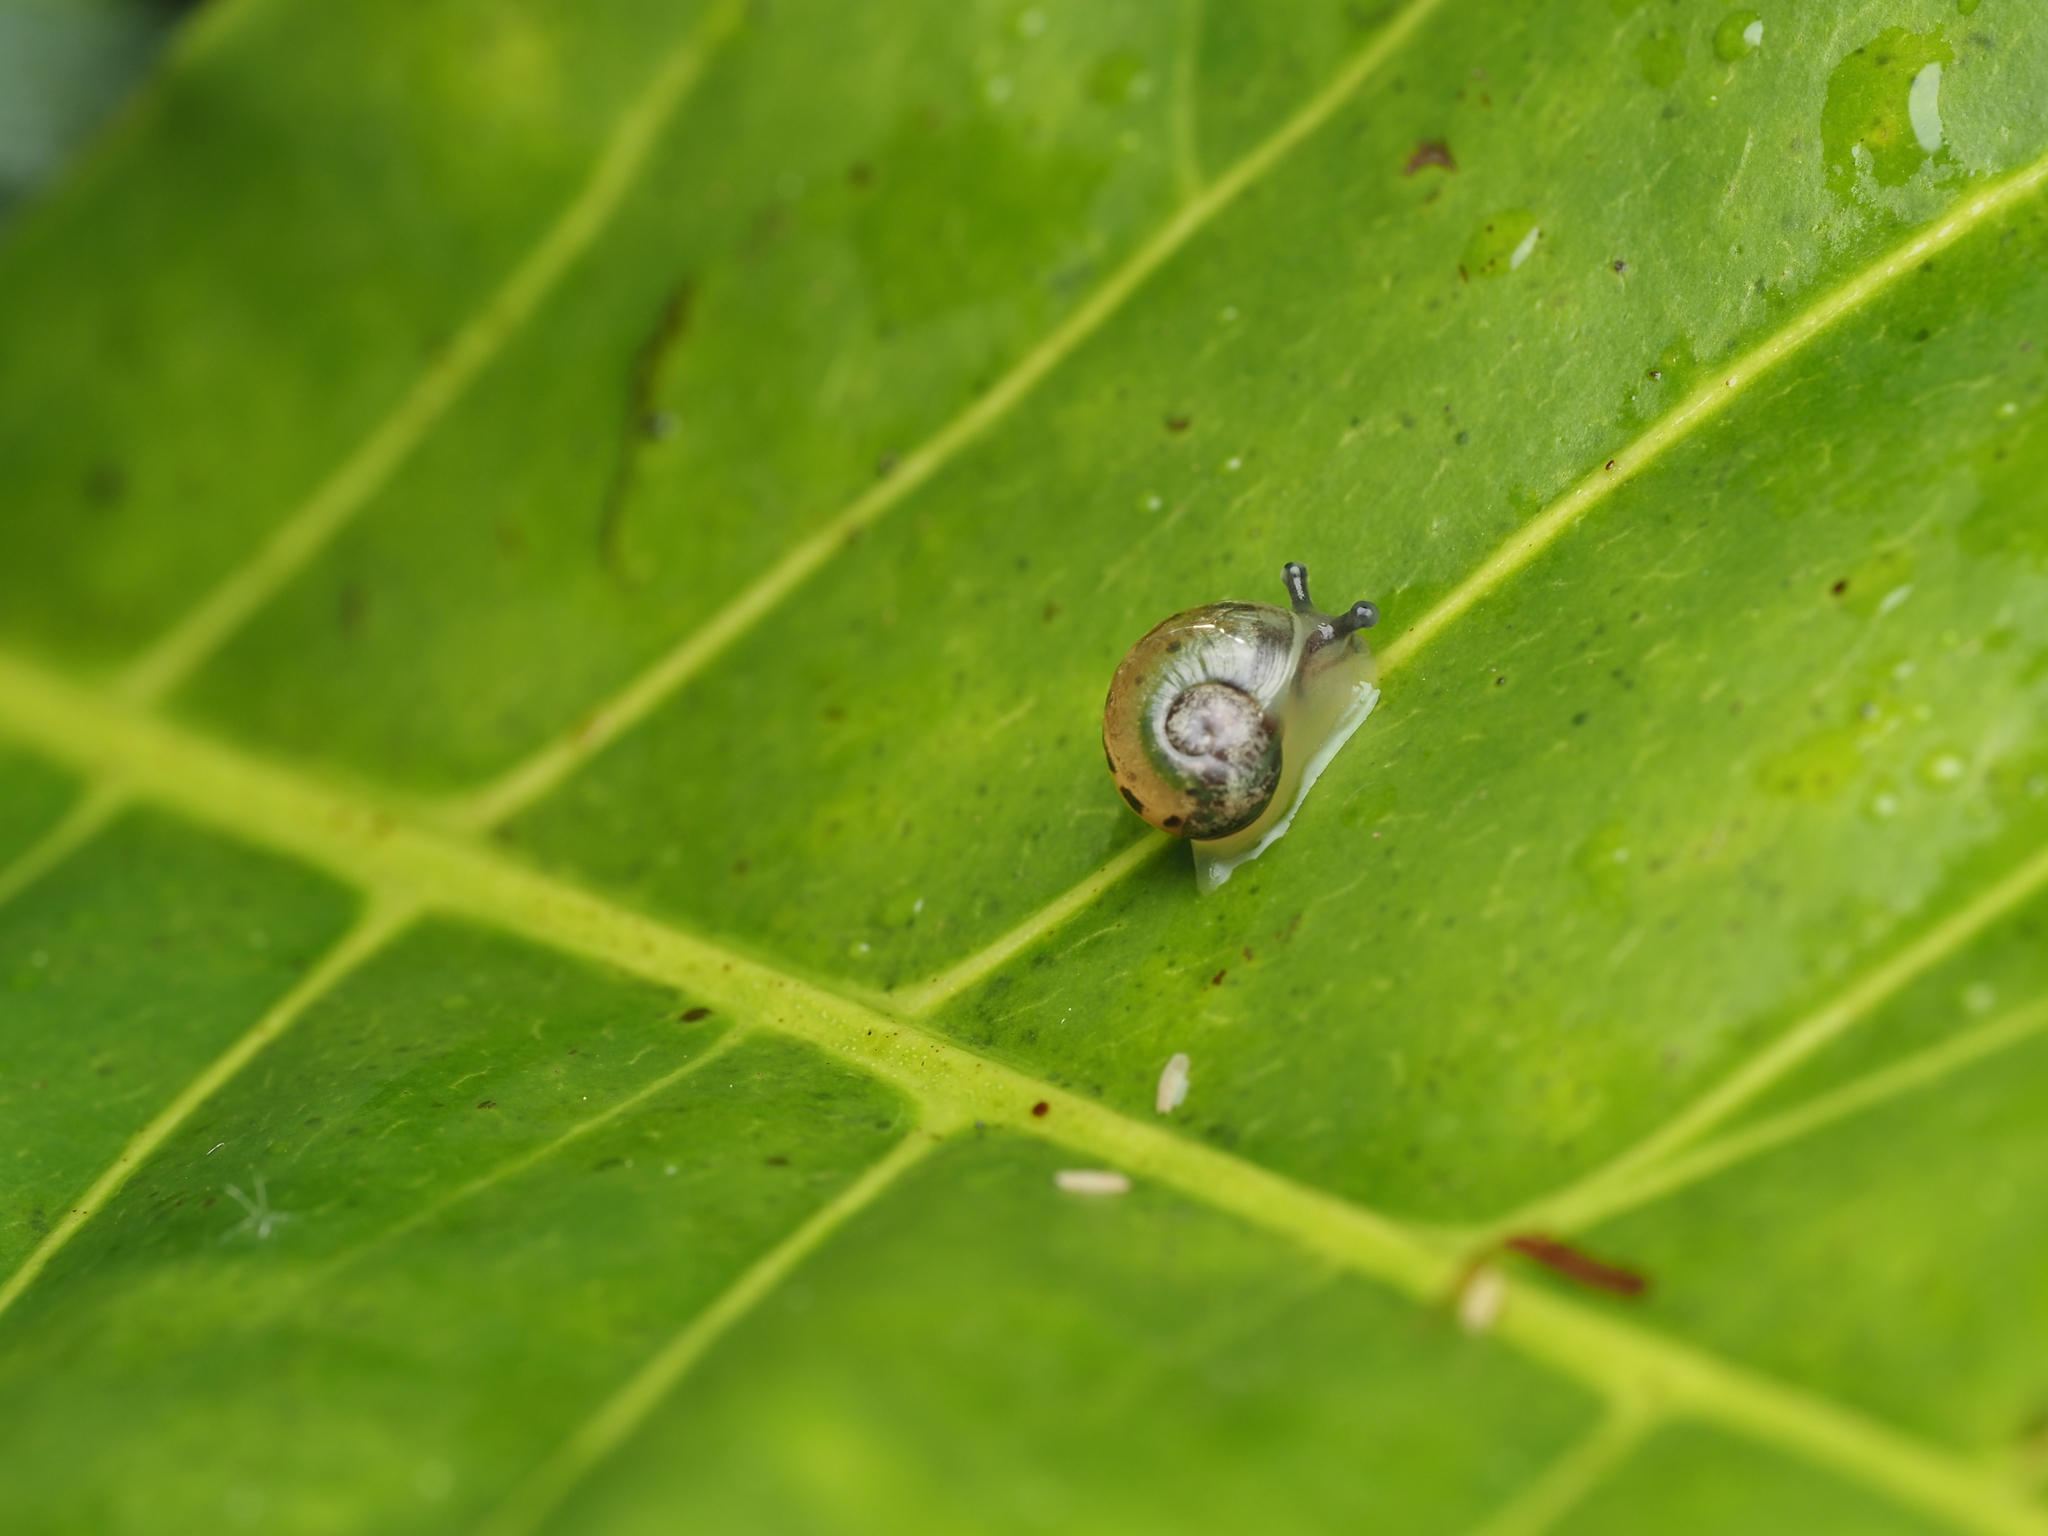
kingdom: Animalia
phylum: Mollusca
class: Gastropoda
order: Stylommatophora
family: Helicidae
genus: Cornu
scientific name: Cornu aspersum
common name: Brown garden snail
